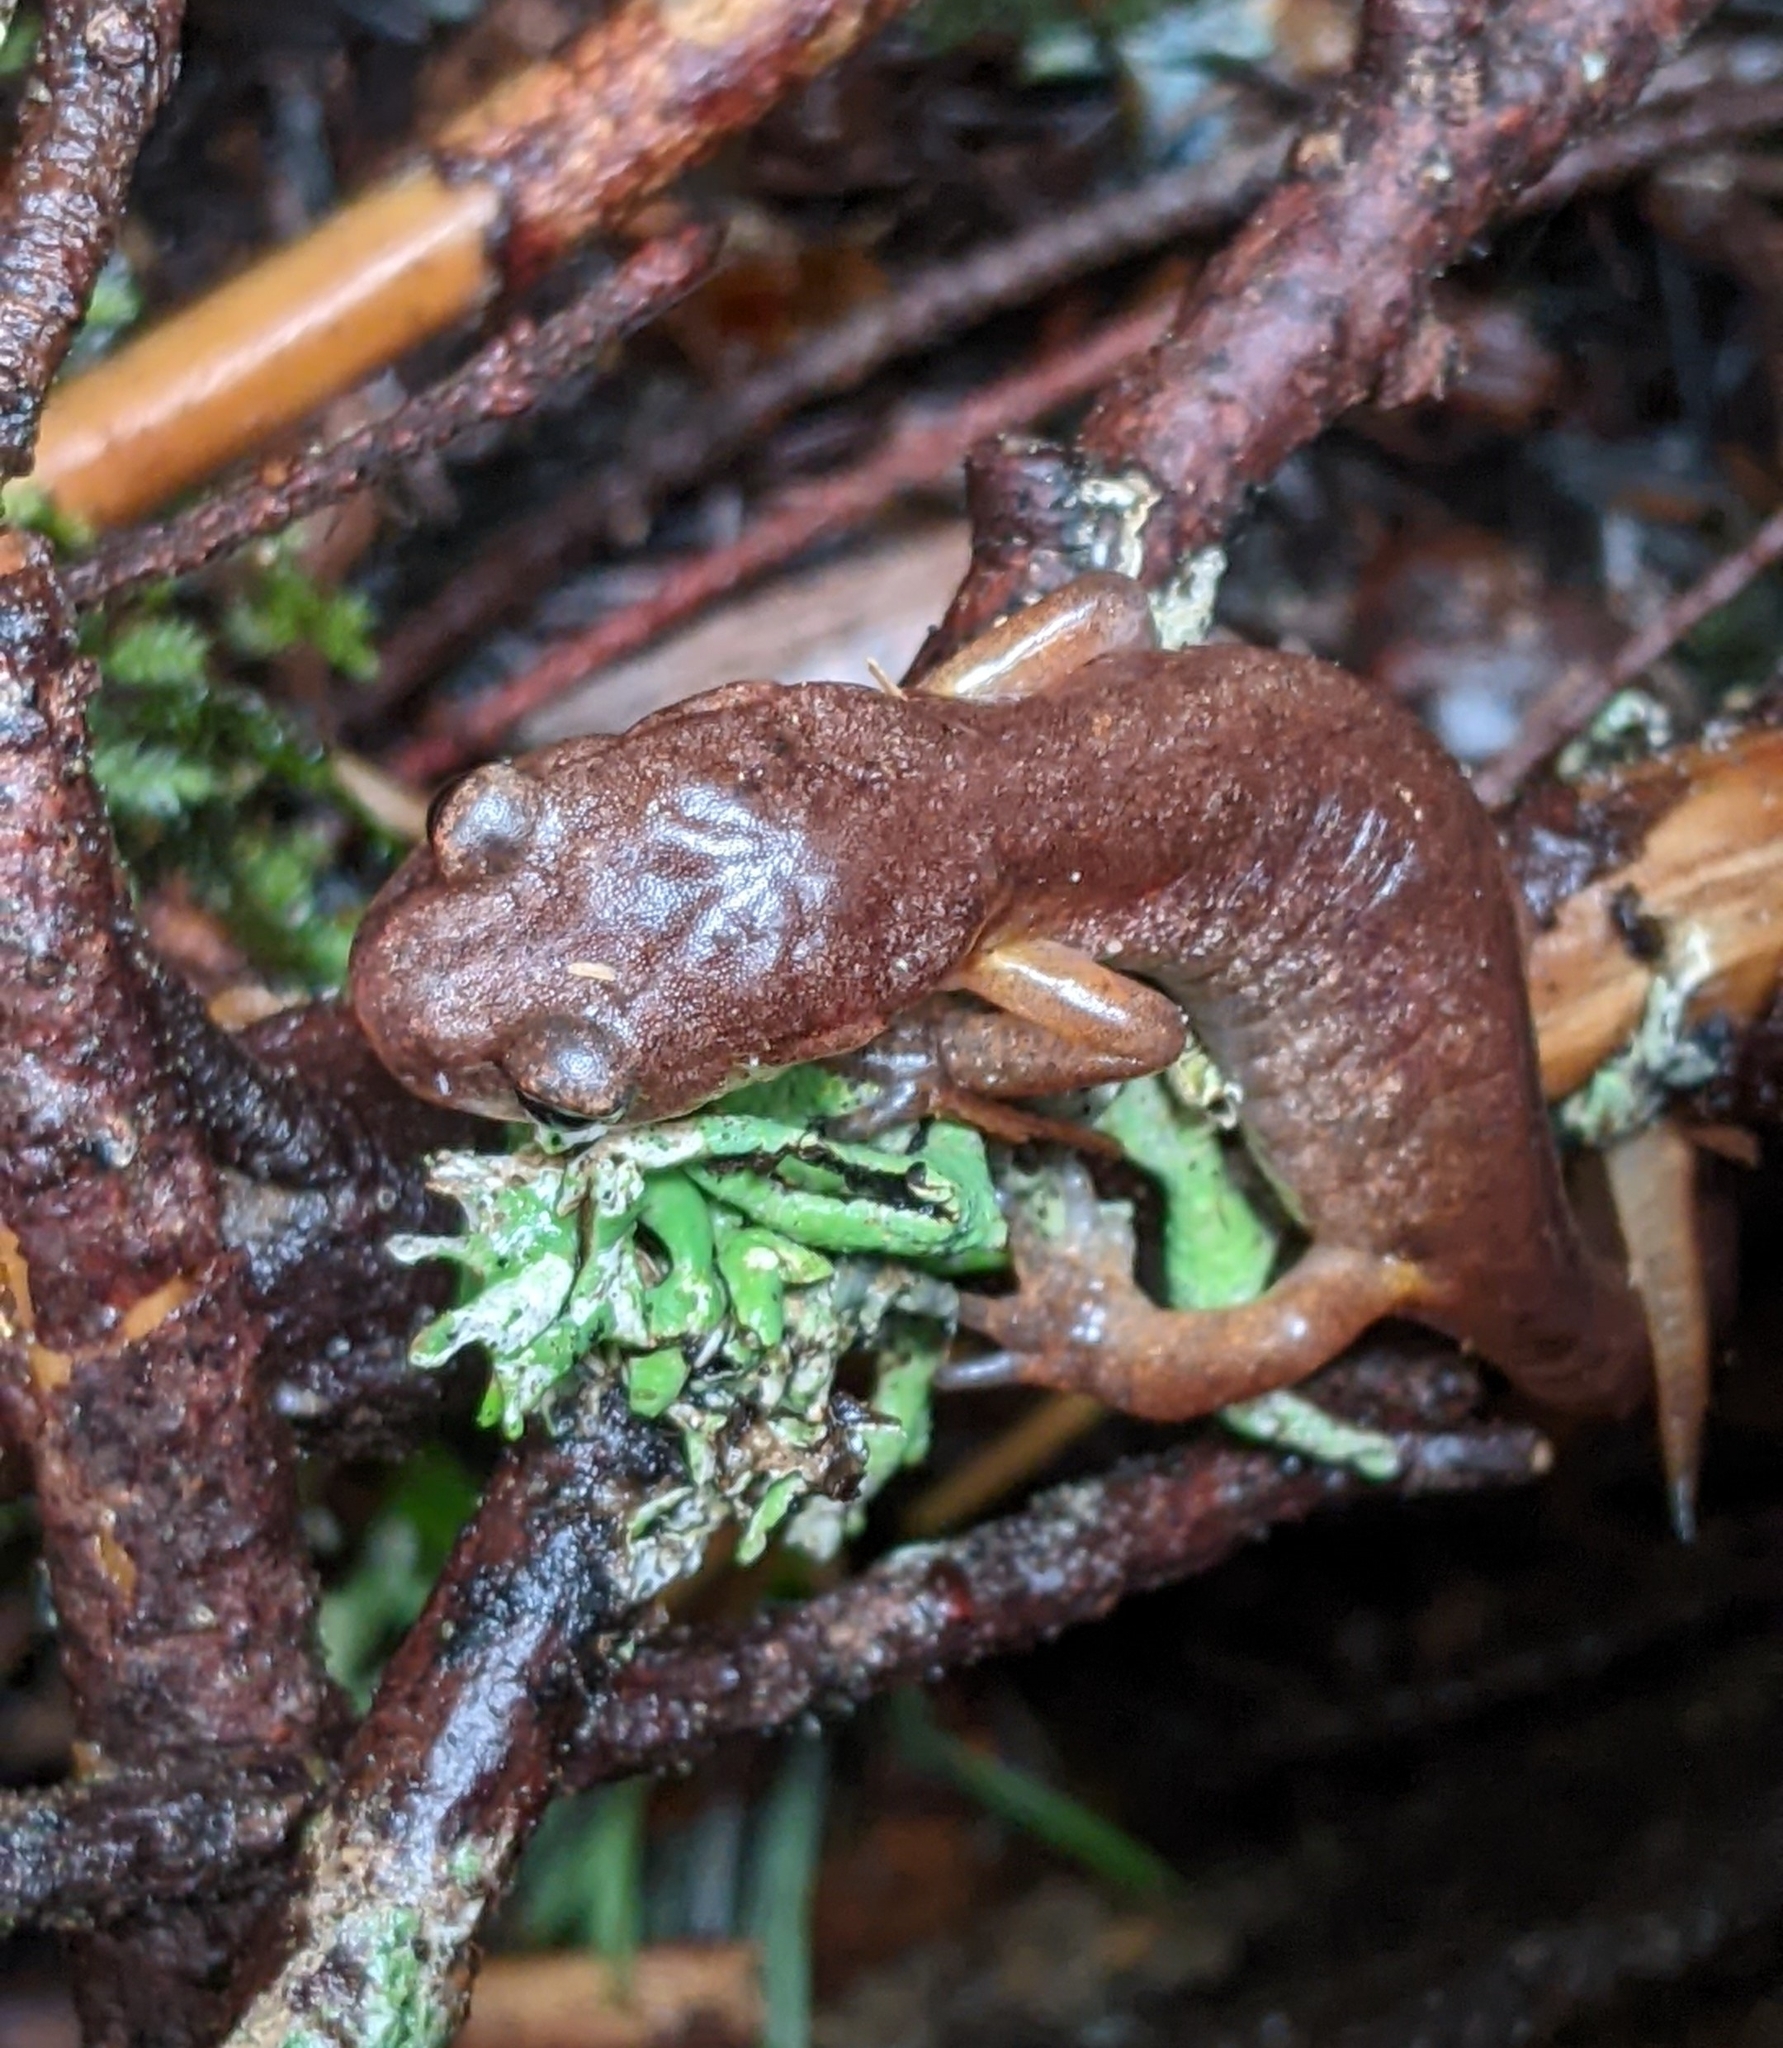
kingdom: Animalia
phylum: Chordata
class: Amphibia
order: Caudata
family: Plethodontidae
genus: Ensatina
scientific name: Ensatina eschscholtzii
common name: Ensatina
